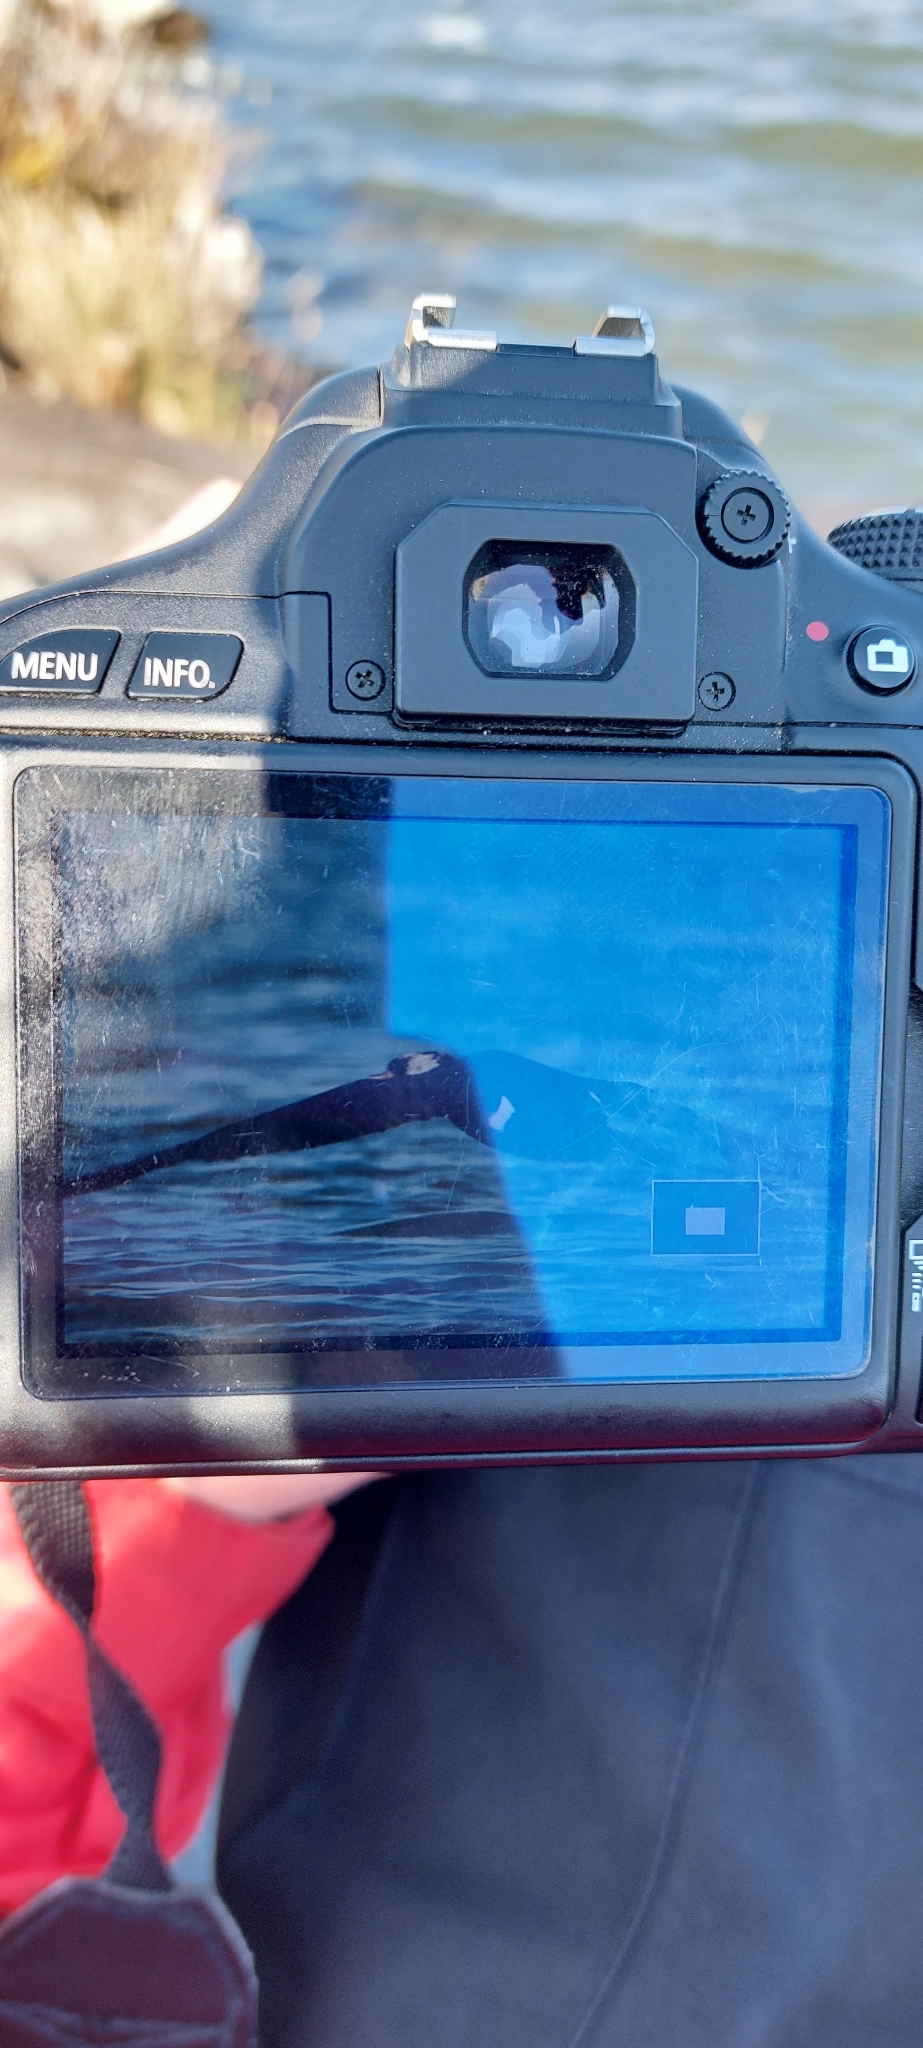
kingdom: Animalia
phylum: Chordata
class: Aves
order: Suliformes
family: Phalacrocoracidae
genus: Phalacrocorax
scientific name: Phalacrocorax carbo
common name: Great cormorant
